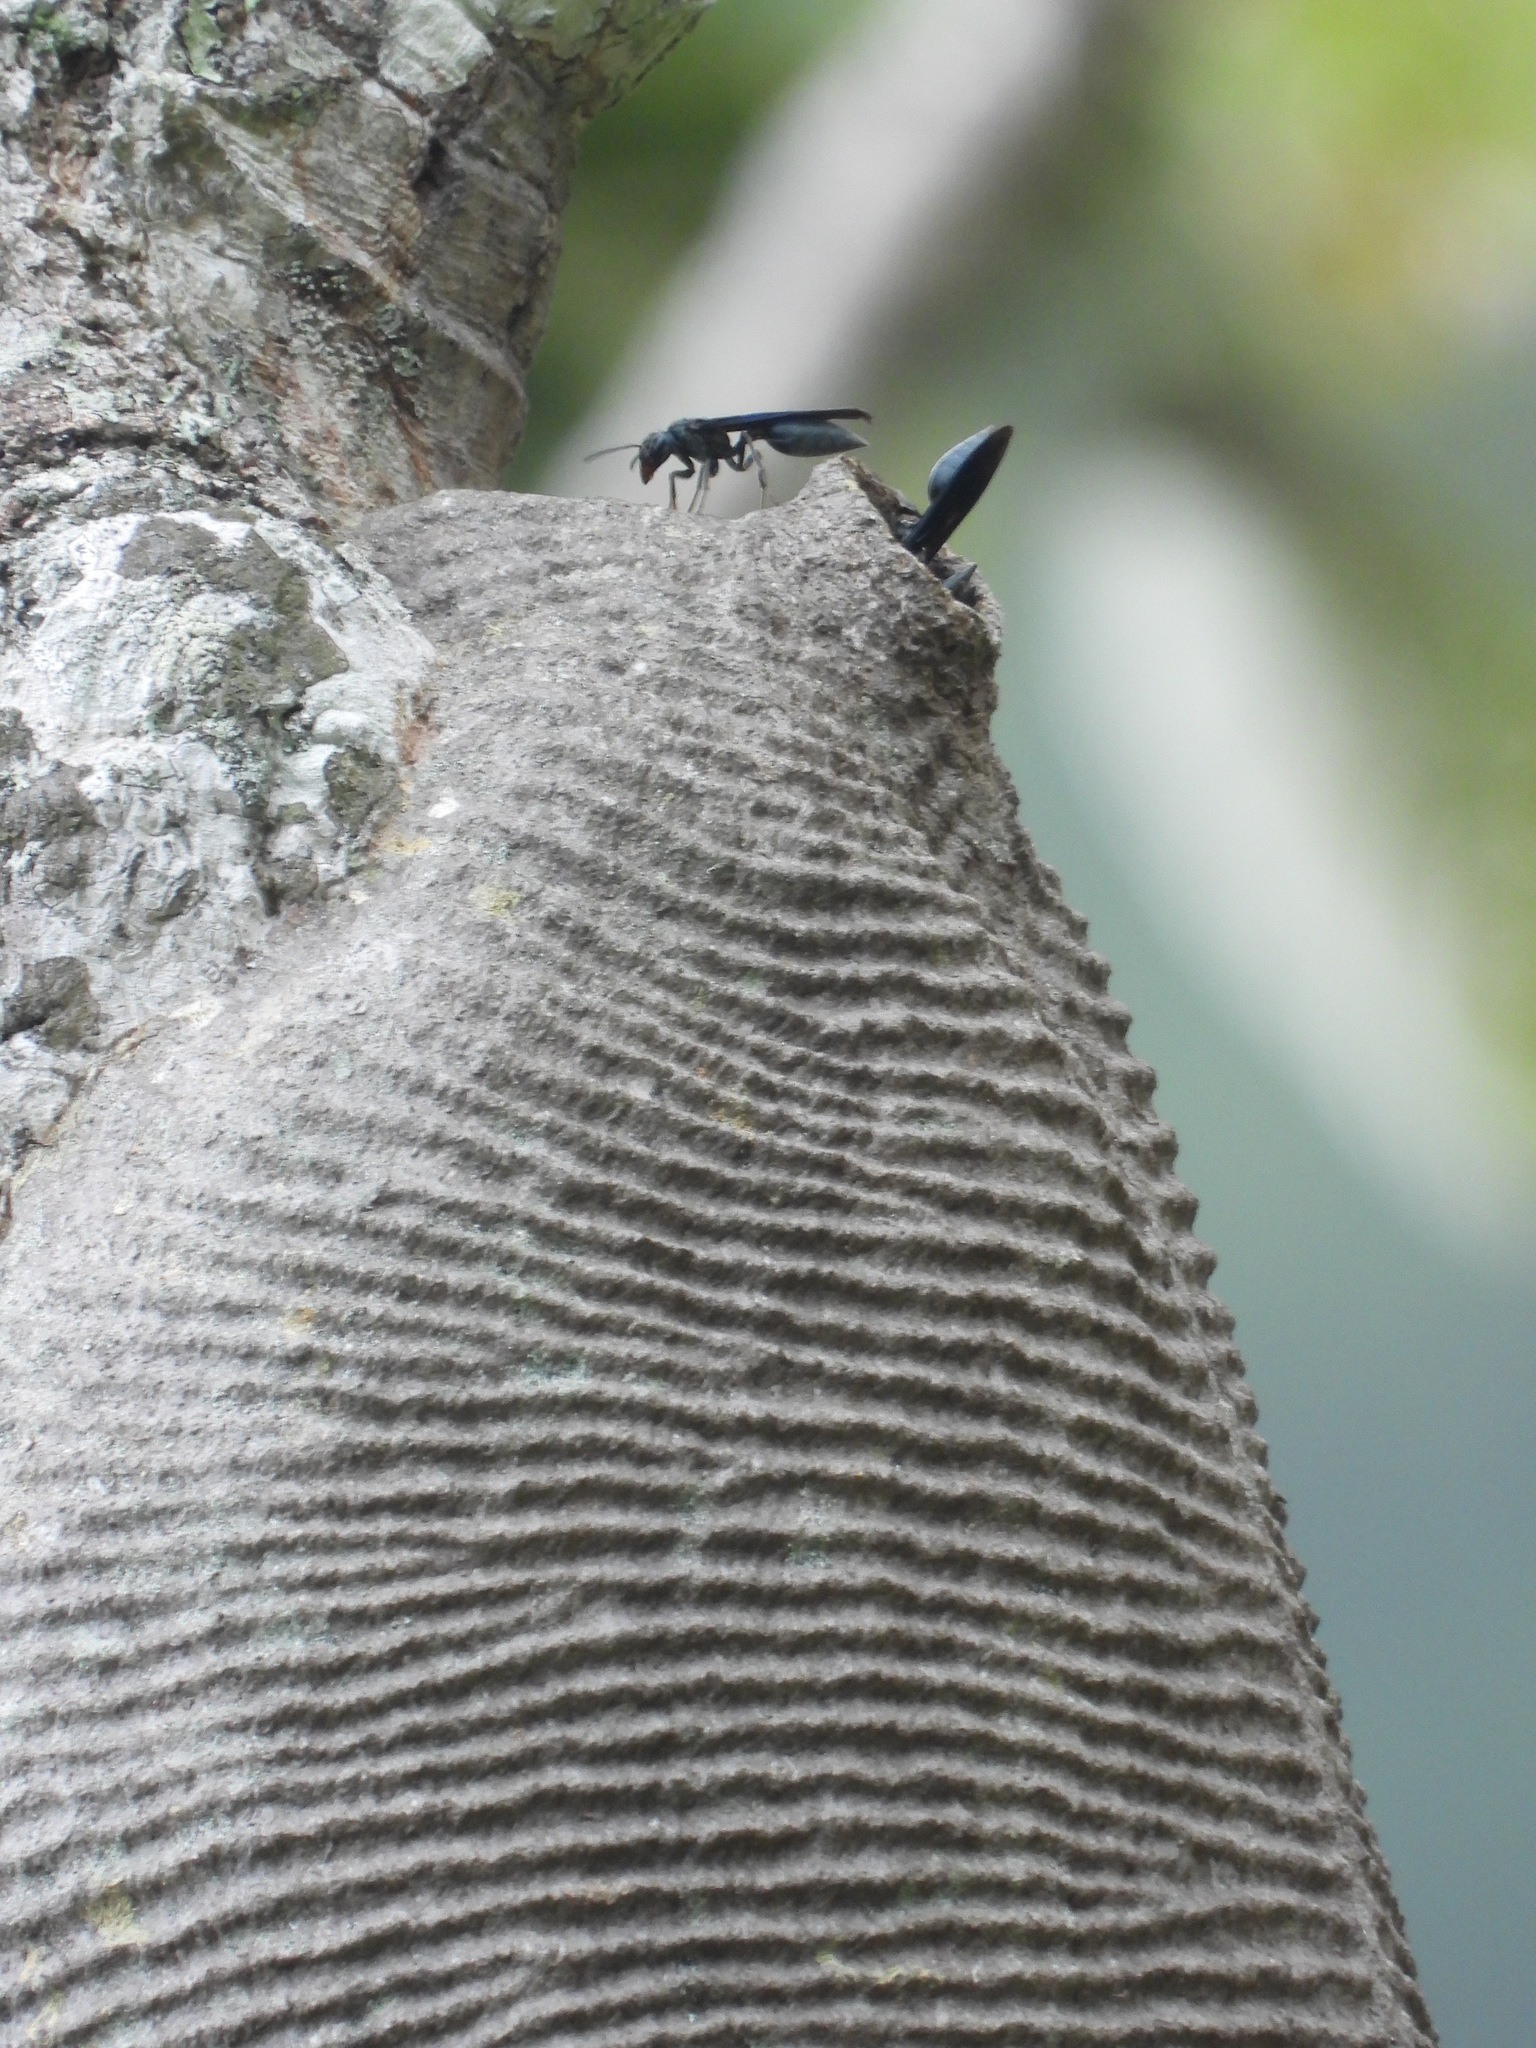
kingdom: Animalia
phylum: Arthropoda
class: Insecta
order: Hymenoptera
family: Vespidae
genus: Synoeca
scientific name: Synoeca septentrionalis
